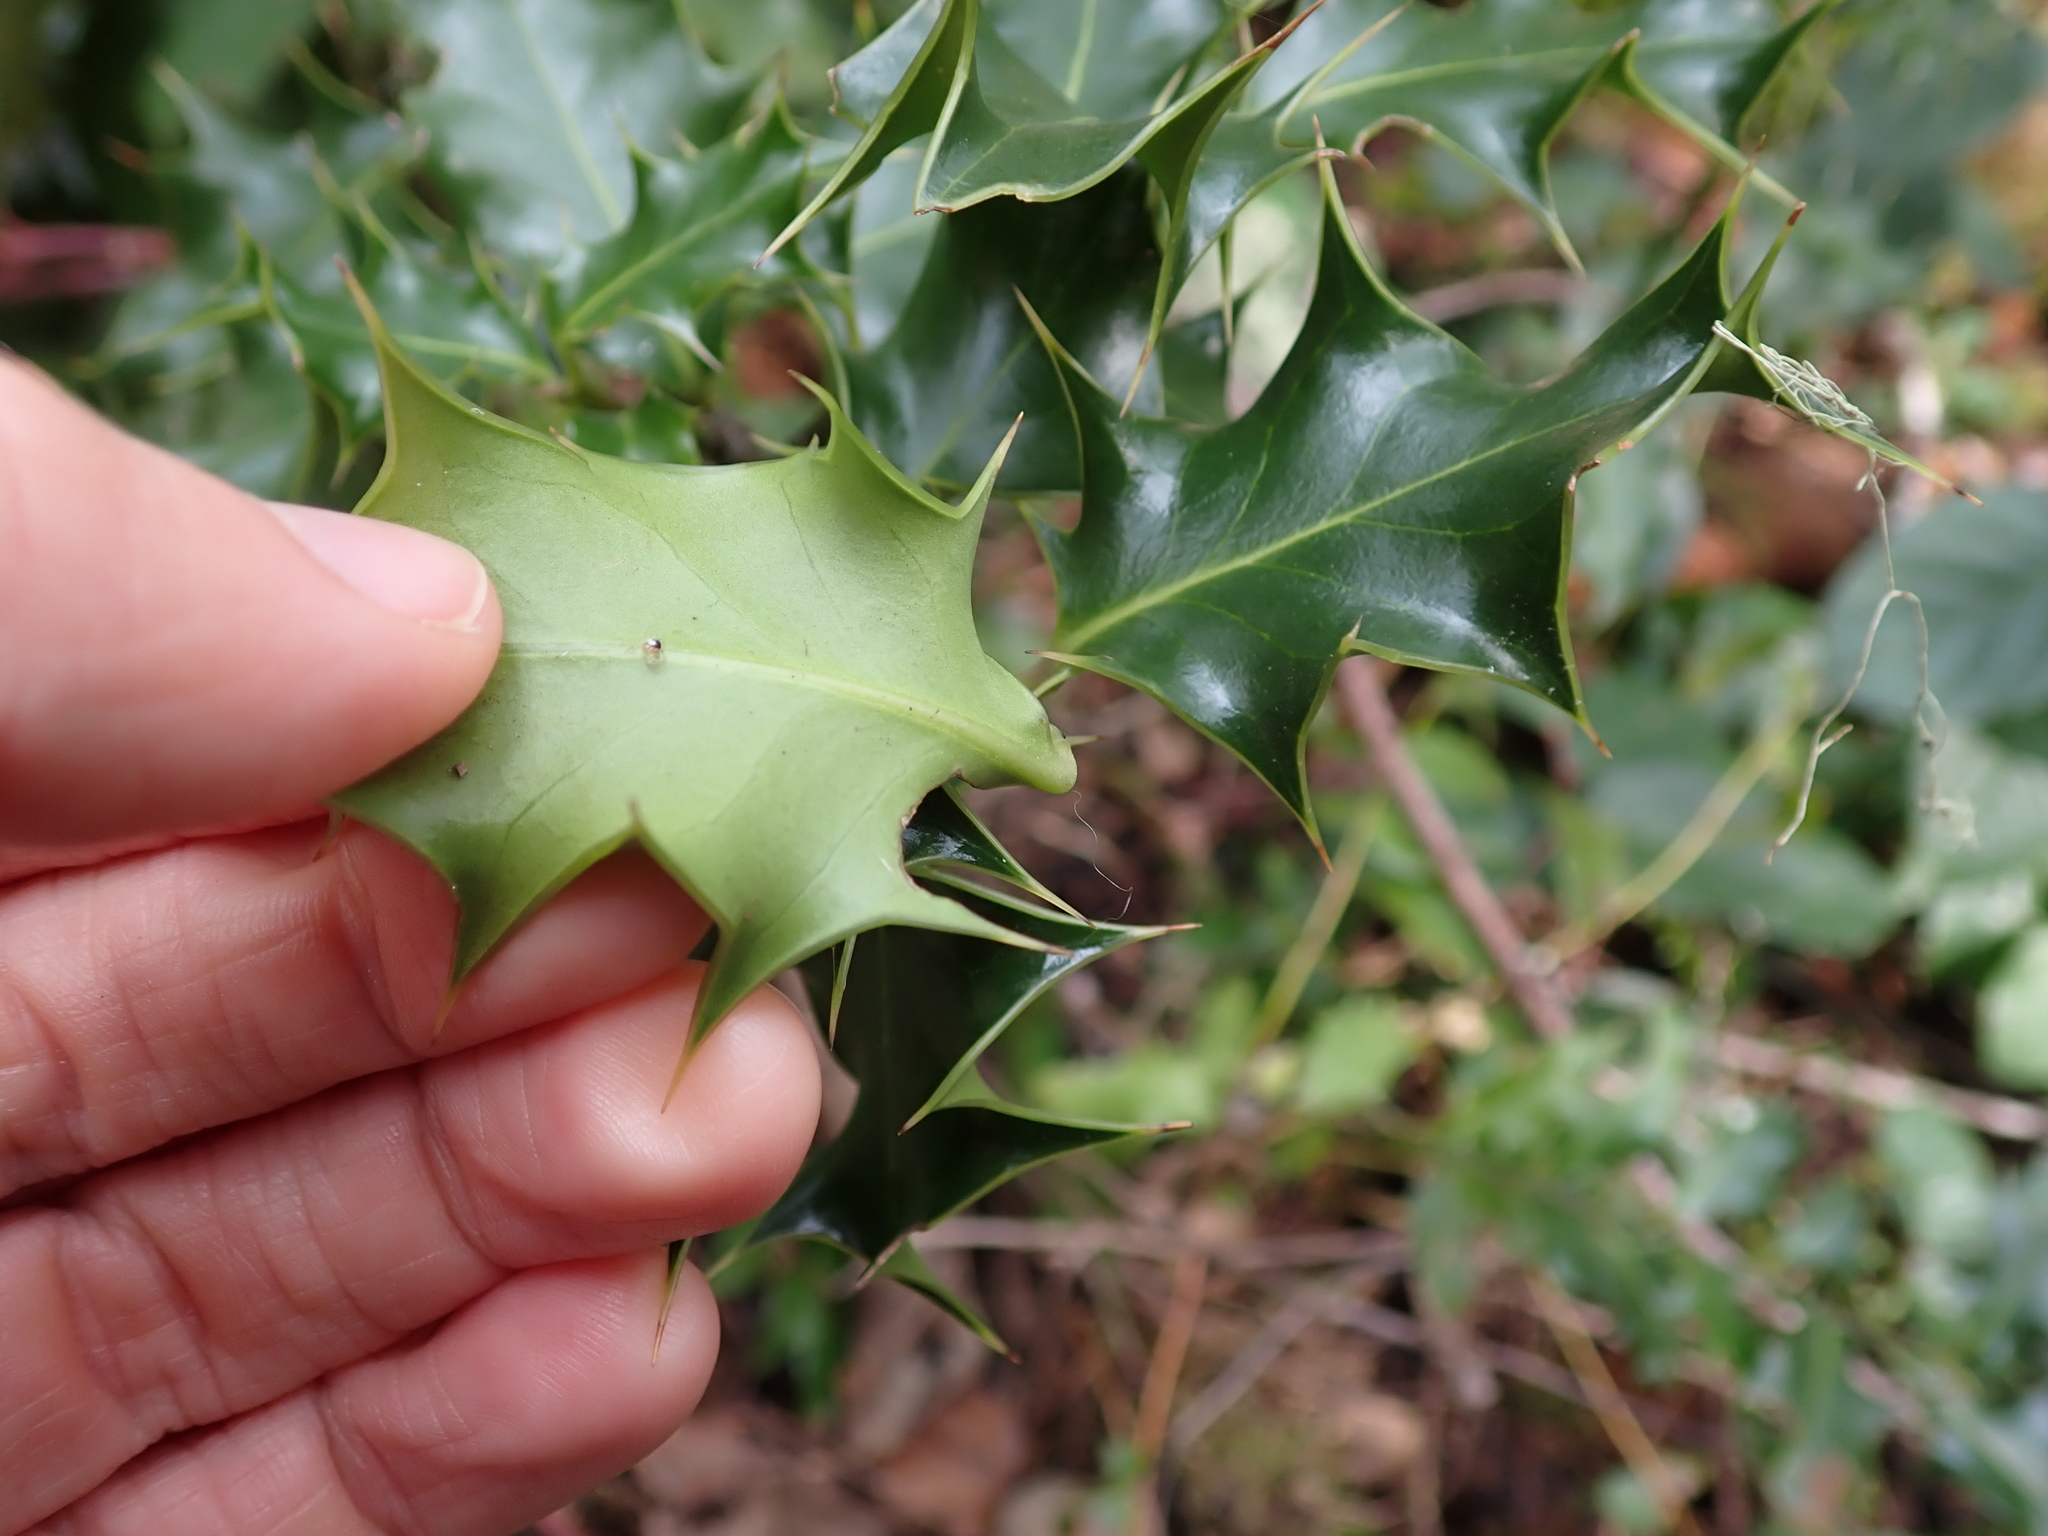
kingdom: Plantae
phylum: Tracheophyta
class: Magnoliopsida
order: Aquifoliales
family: Aquifoliaceae
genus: Ilex
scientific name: Ilex aquifolium
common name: English holly
